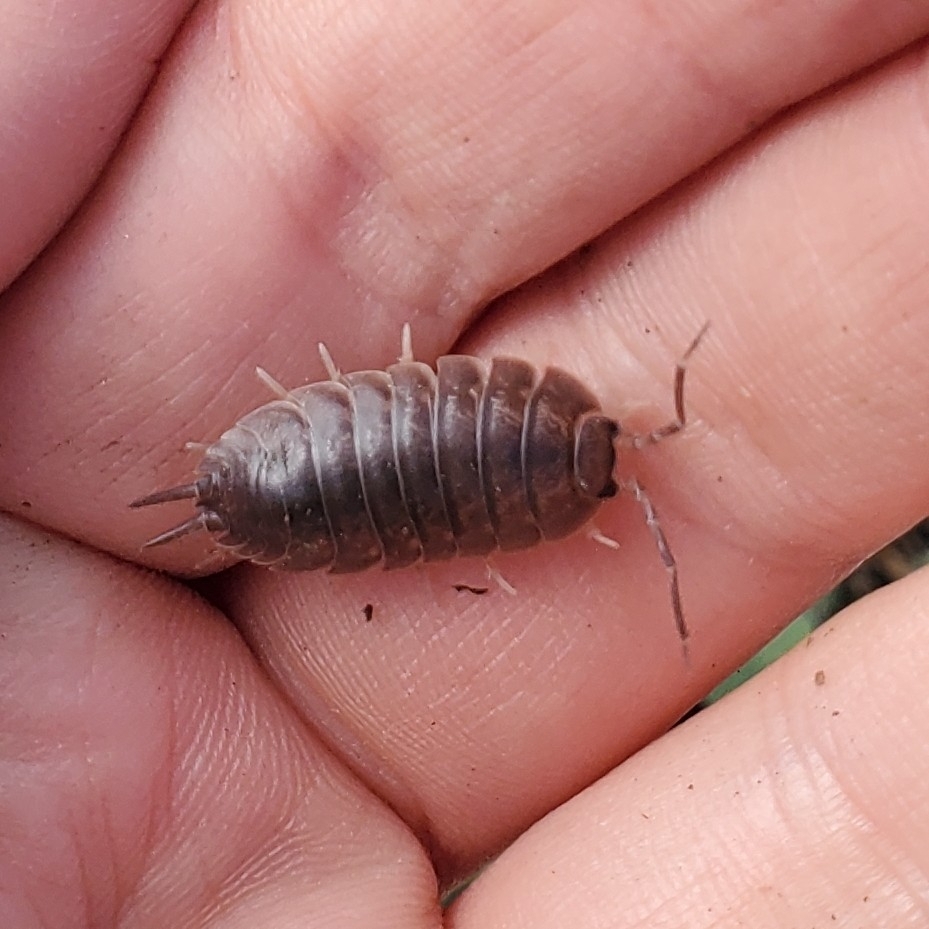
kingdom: Animalia
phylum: Arthropoda
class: Malacostraca
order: Isopoda
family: Porcellionidae
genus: Porcellio
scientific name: Porcellio laevis
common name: Swift woodlouse
